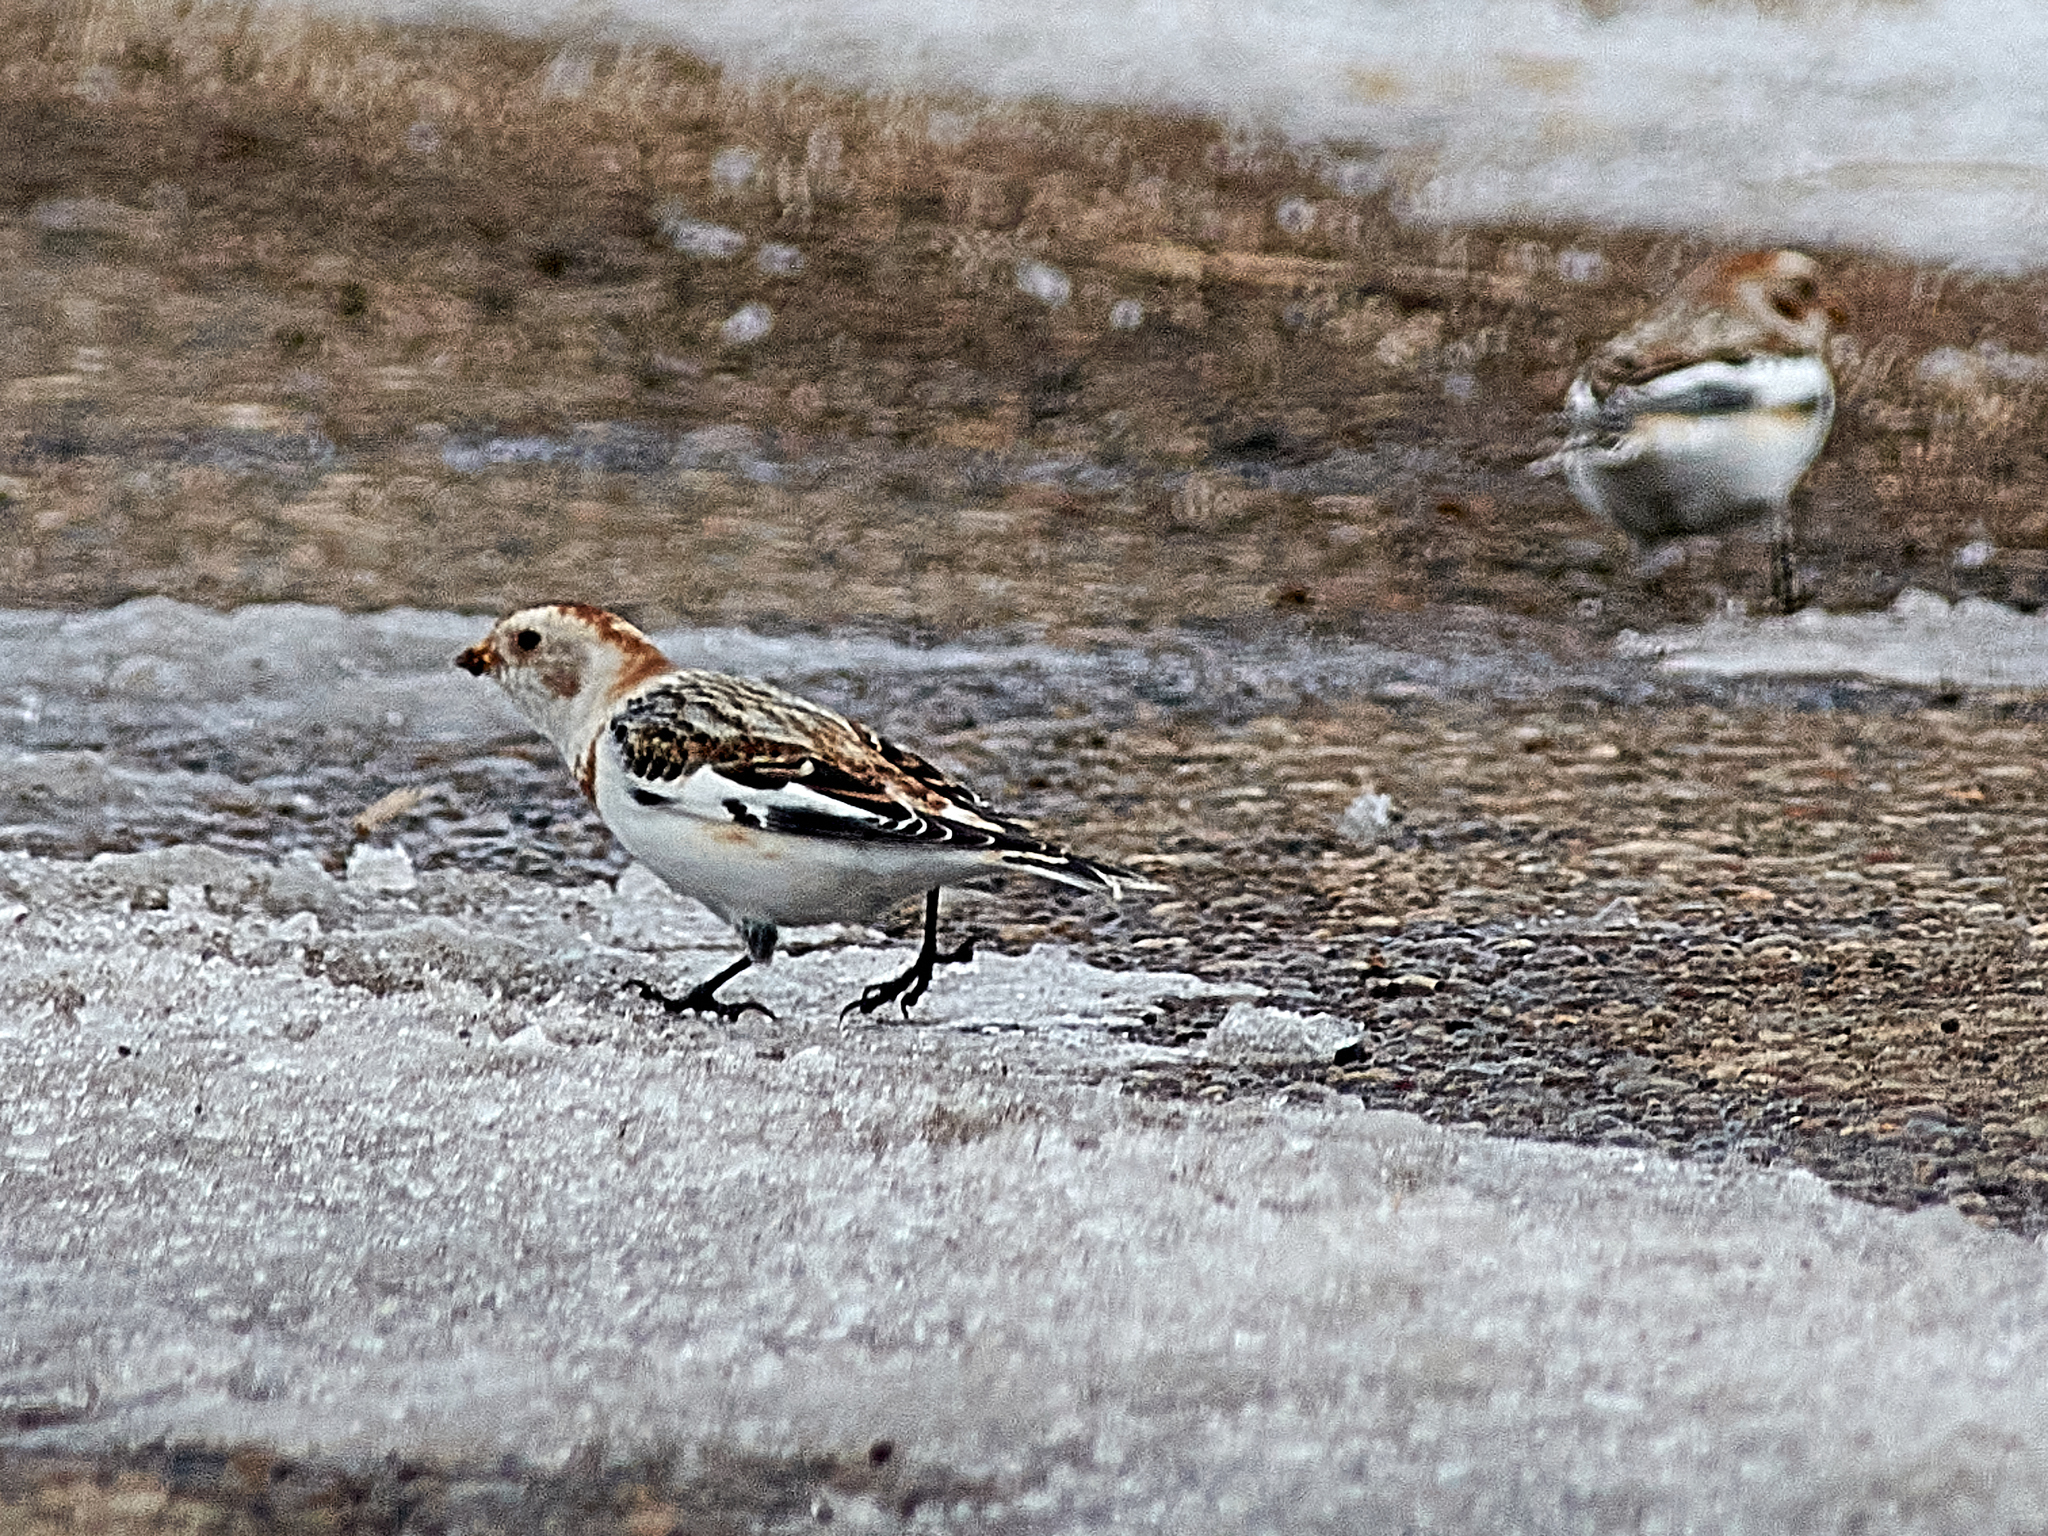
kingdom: Animalia
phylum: Chordata
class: Aves
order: Passeriformes
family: Calcariidae
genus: Plectrophenax
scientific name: Plectrophenax nivalis
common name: Snow bunting
